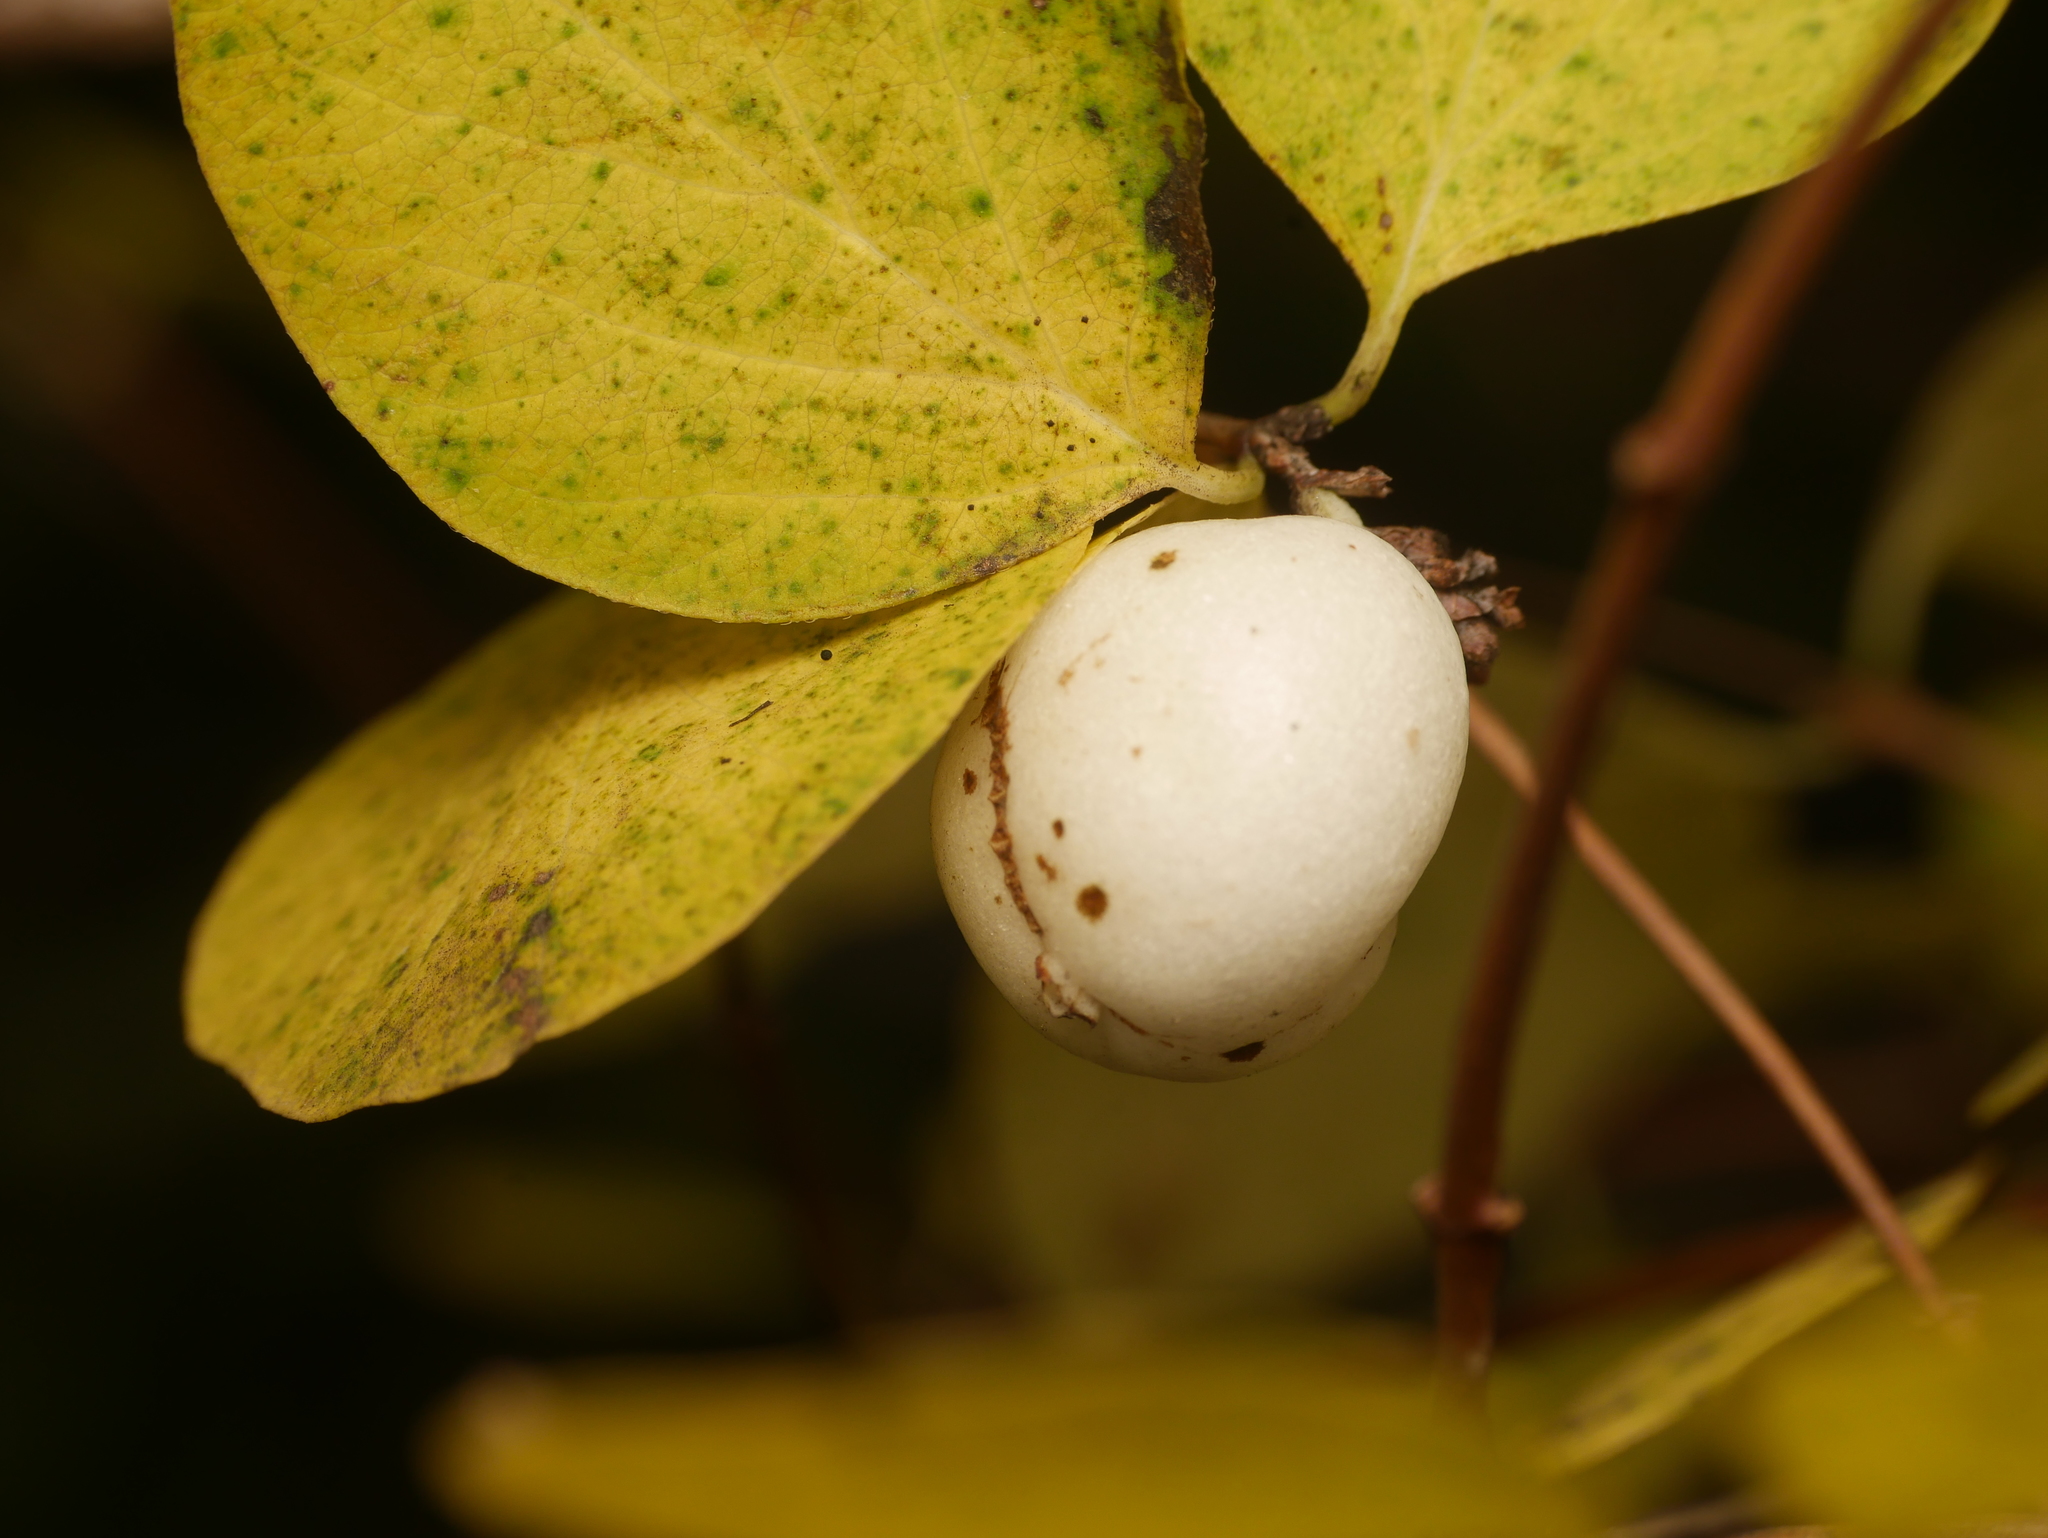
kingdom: Plantae
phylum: Tracheophyta
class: Magnoliopsida
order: Dipsacales
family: Caprifoliaceae
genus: Symphoricarpos
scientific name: Symphoricarpos albus
